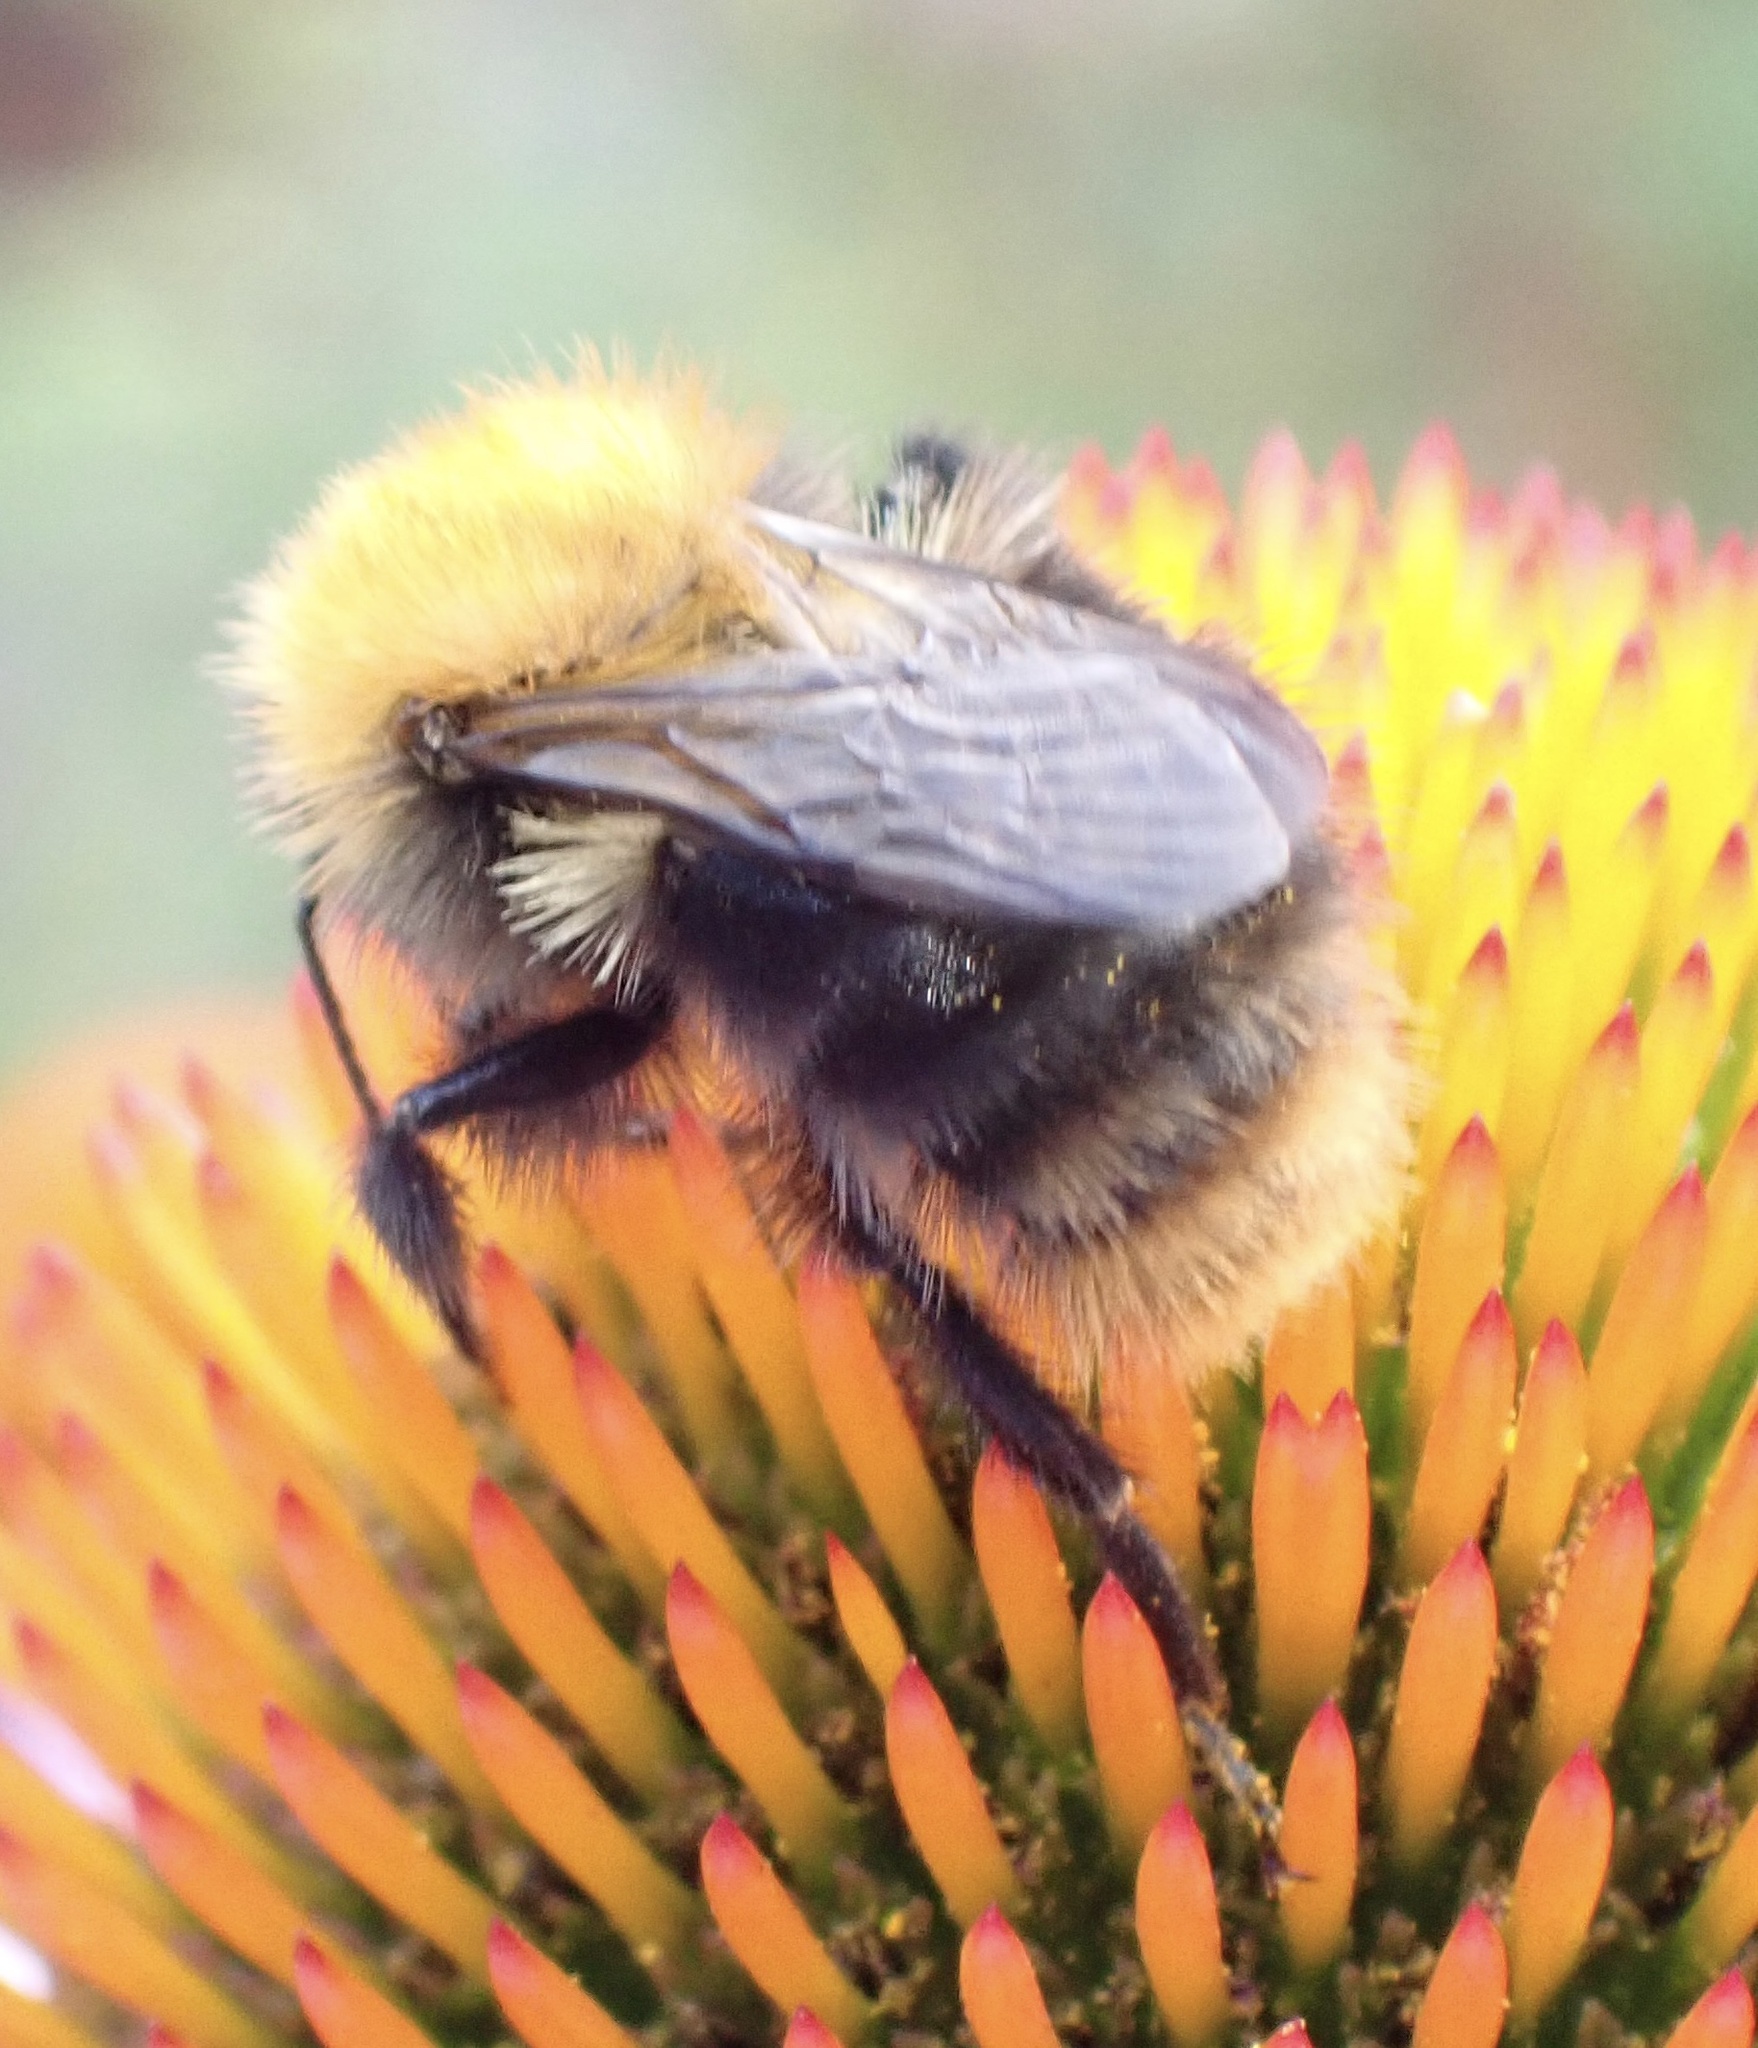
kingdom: Animalia
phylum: Arthropoda
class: Insecta
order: Hymenoptera
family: Apidae
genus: Bombus
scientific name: Bombus pascuorum
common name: Common carder bee
